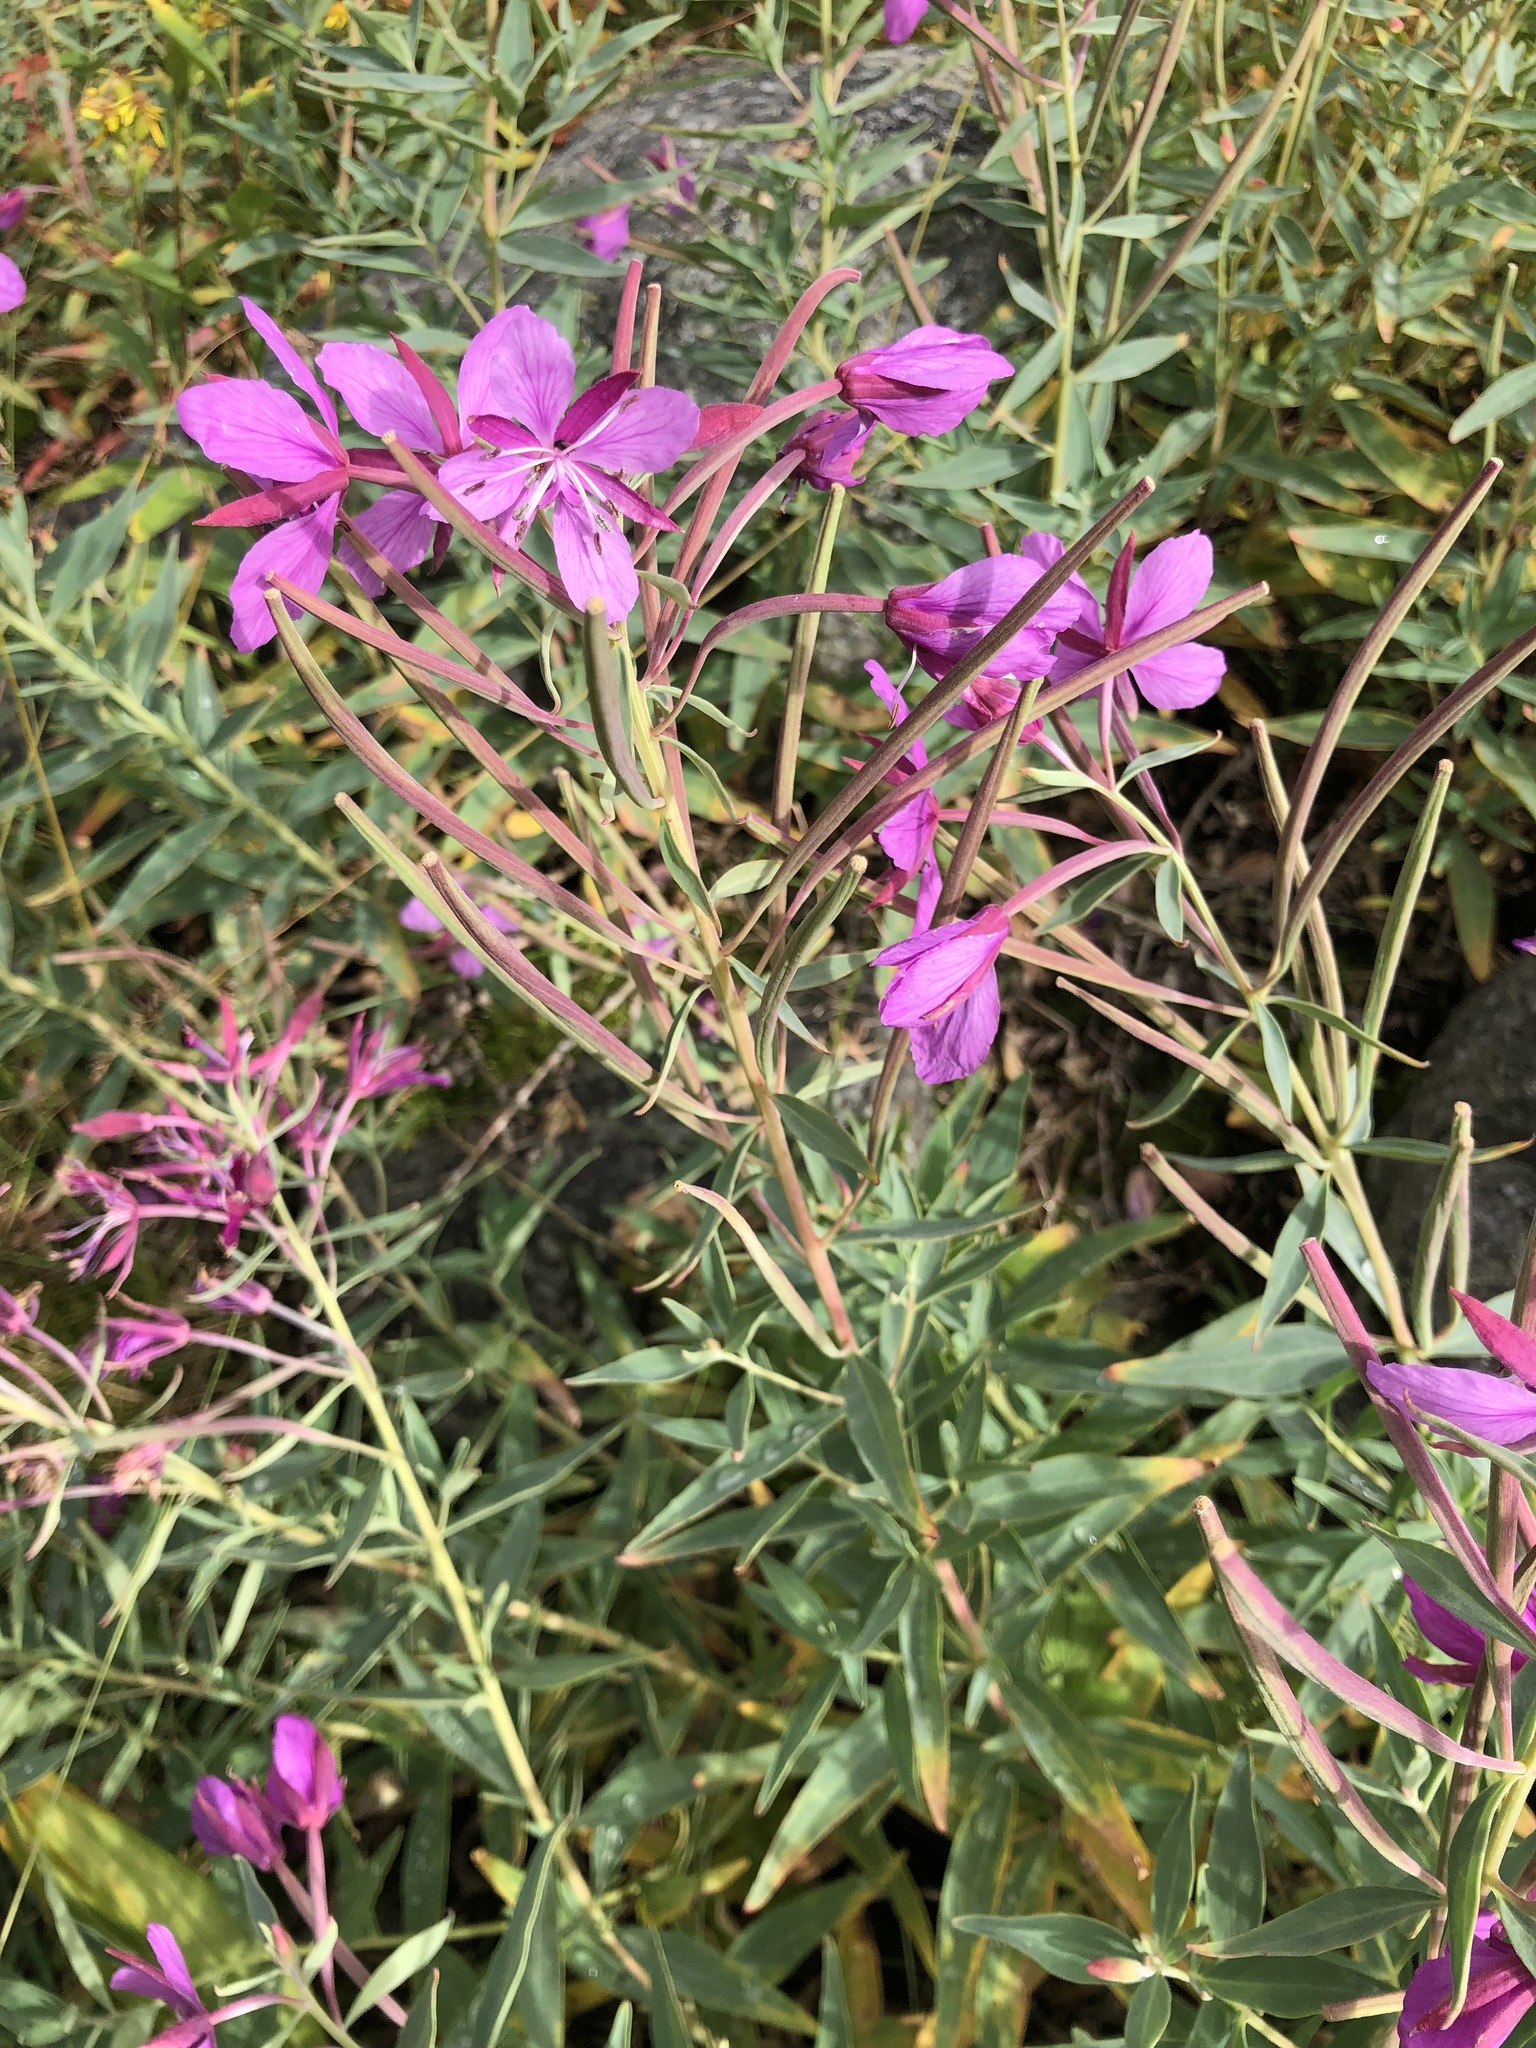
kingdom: Plantae
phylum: Tracheophyta
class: Magnoliopsida
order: Myrtales
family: Onagraceae
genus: Chamaenerion
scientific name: Chamaenerion latifolium
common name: Dwarf fireweed
